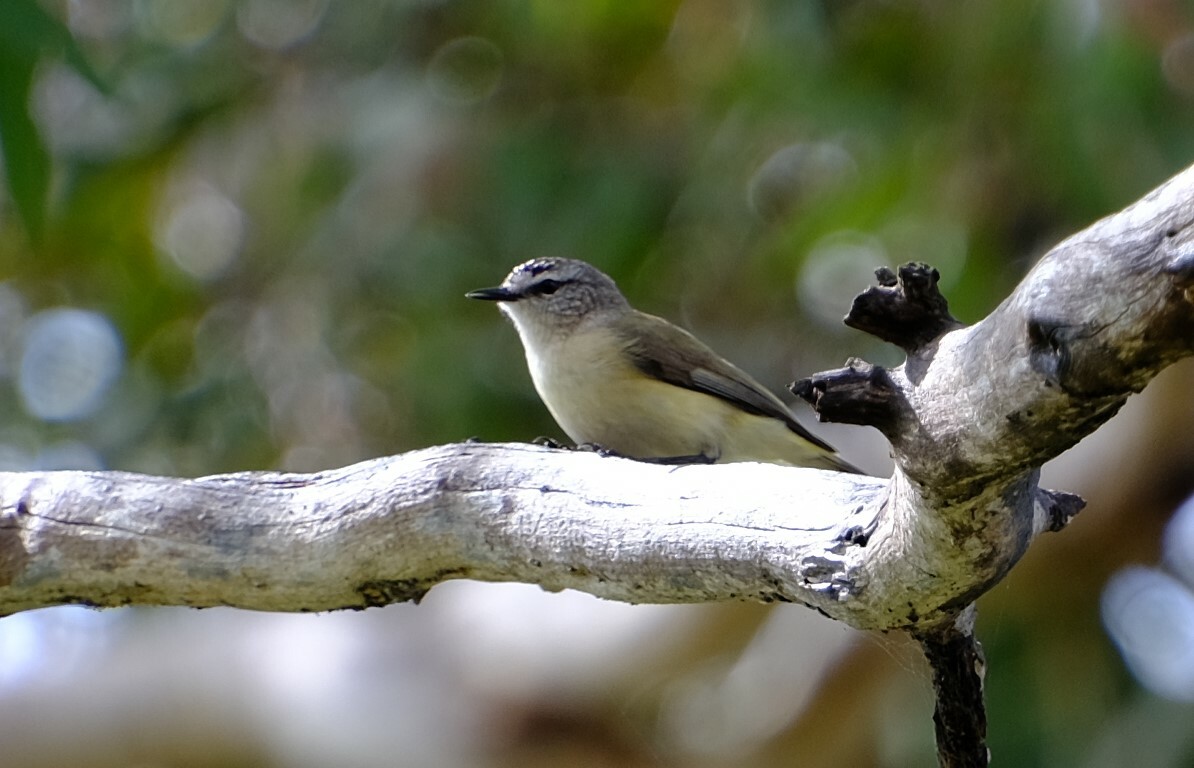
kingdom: Animalia
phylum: Chordata
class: Aves
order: Passeriformes
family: Acanthizidae
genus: Acanthiza
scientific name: Acanthiza chrysorrhoa
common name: Yellow-rumped thornbill
